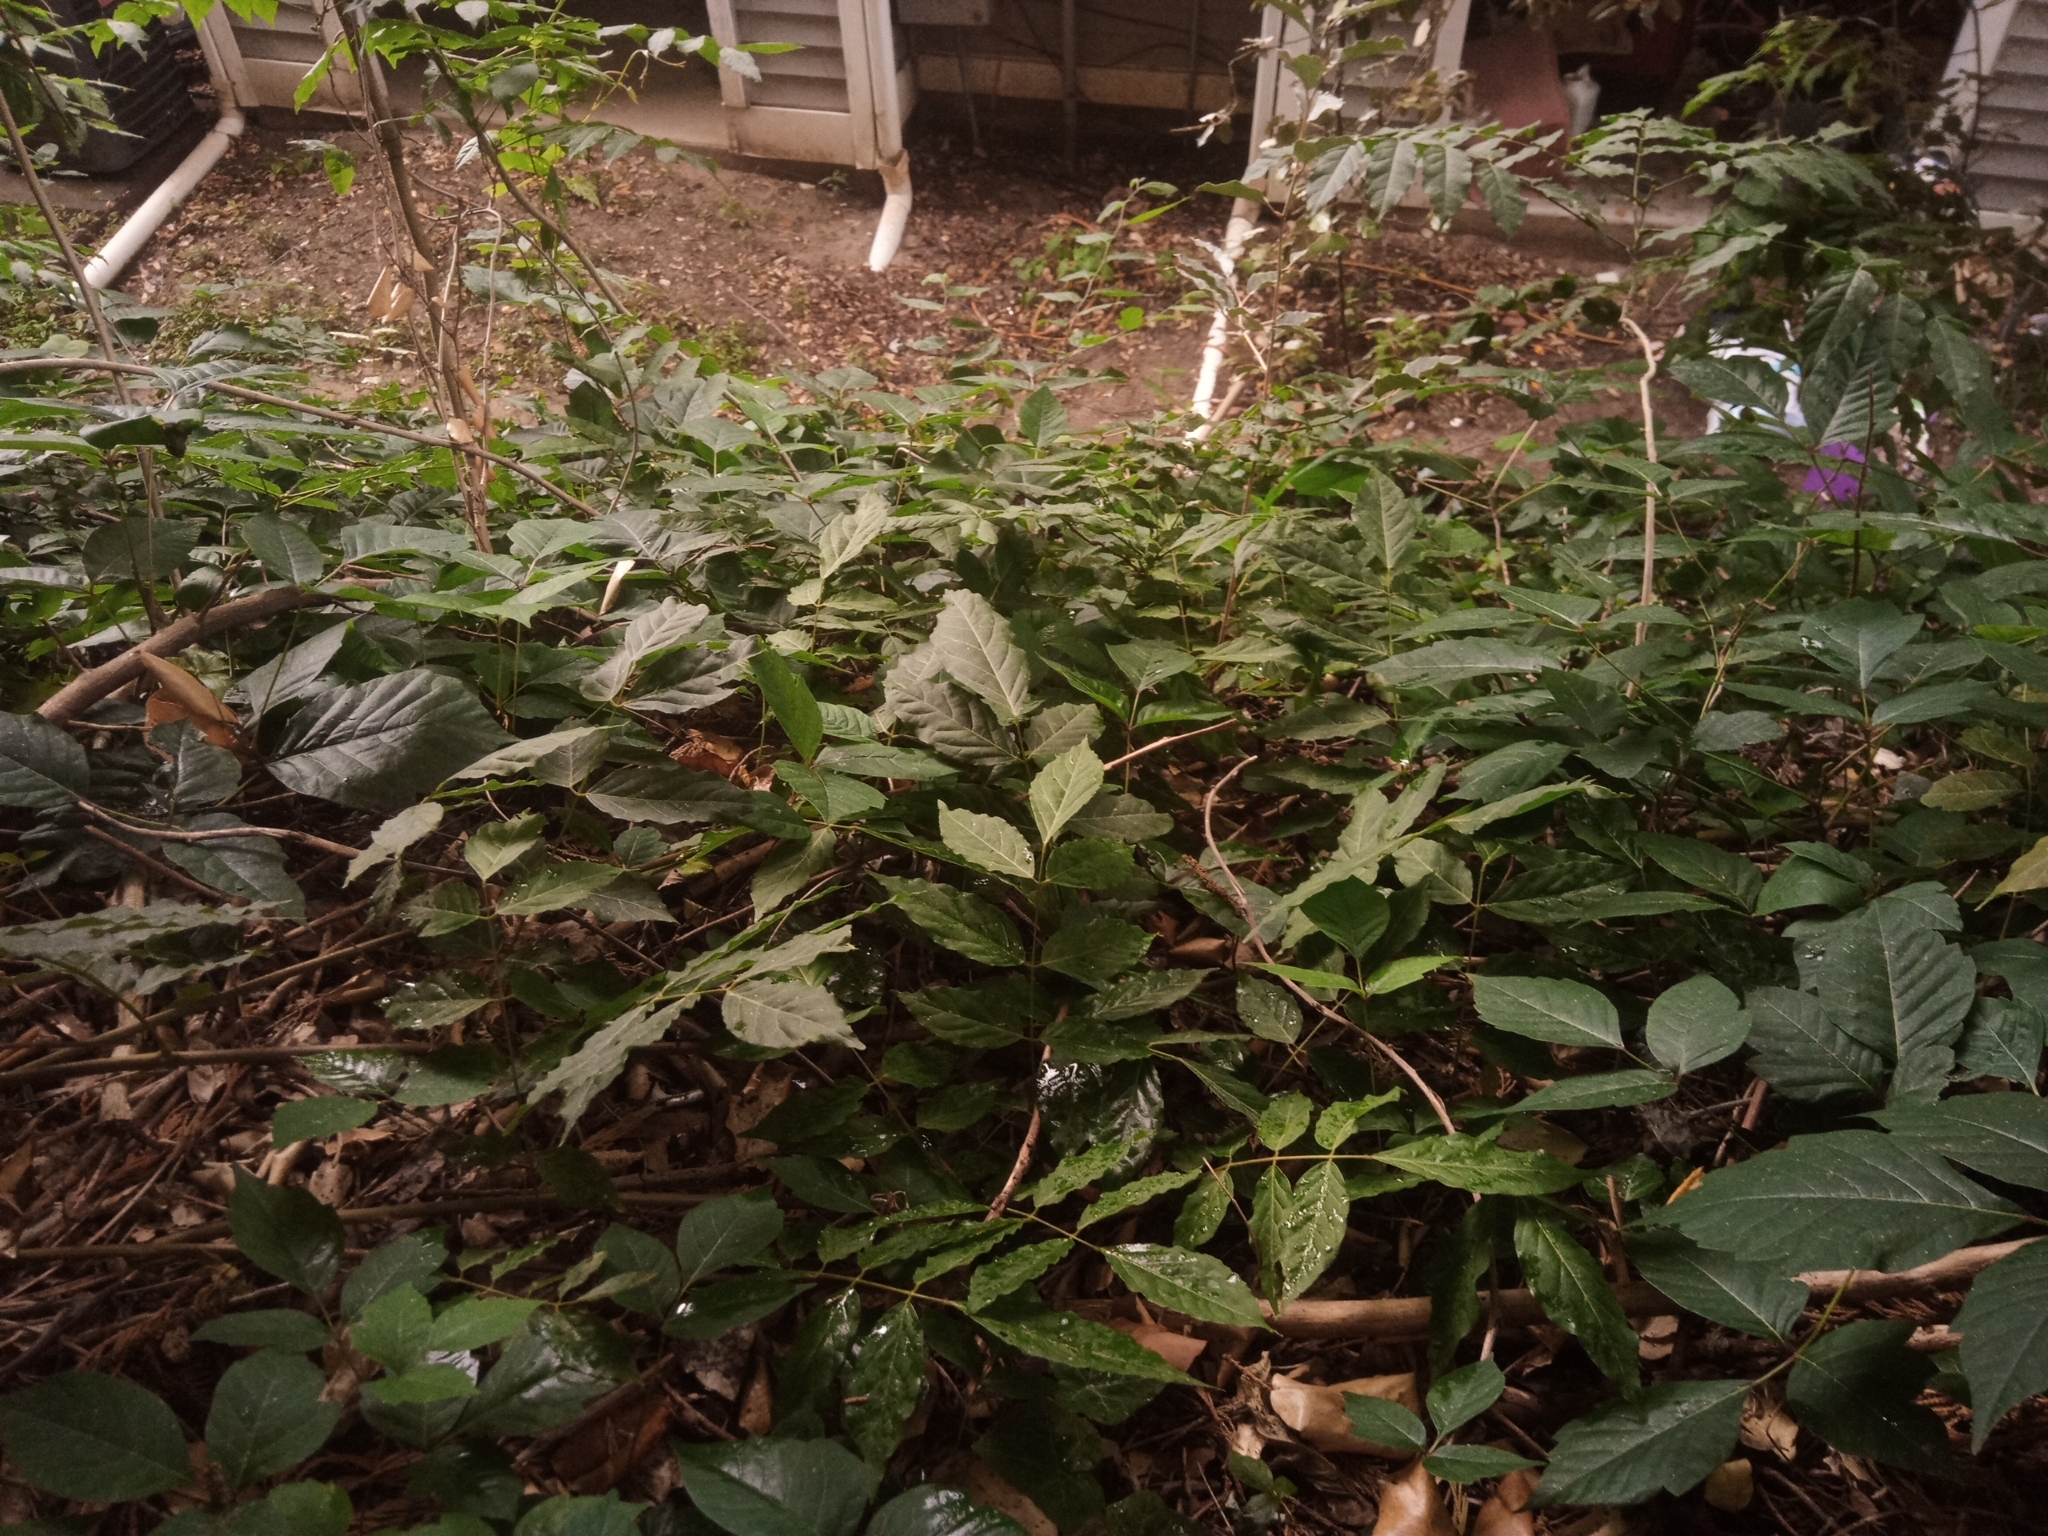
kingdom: Plantae
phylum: Tracheophyta
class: Magnoliopsida
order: Sapindales
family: Anacardiaceae
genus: Toxicodendron
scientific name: Toxicodendron radicans
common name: Poison ivy
